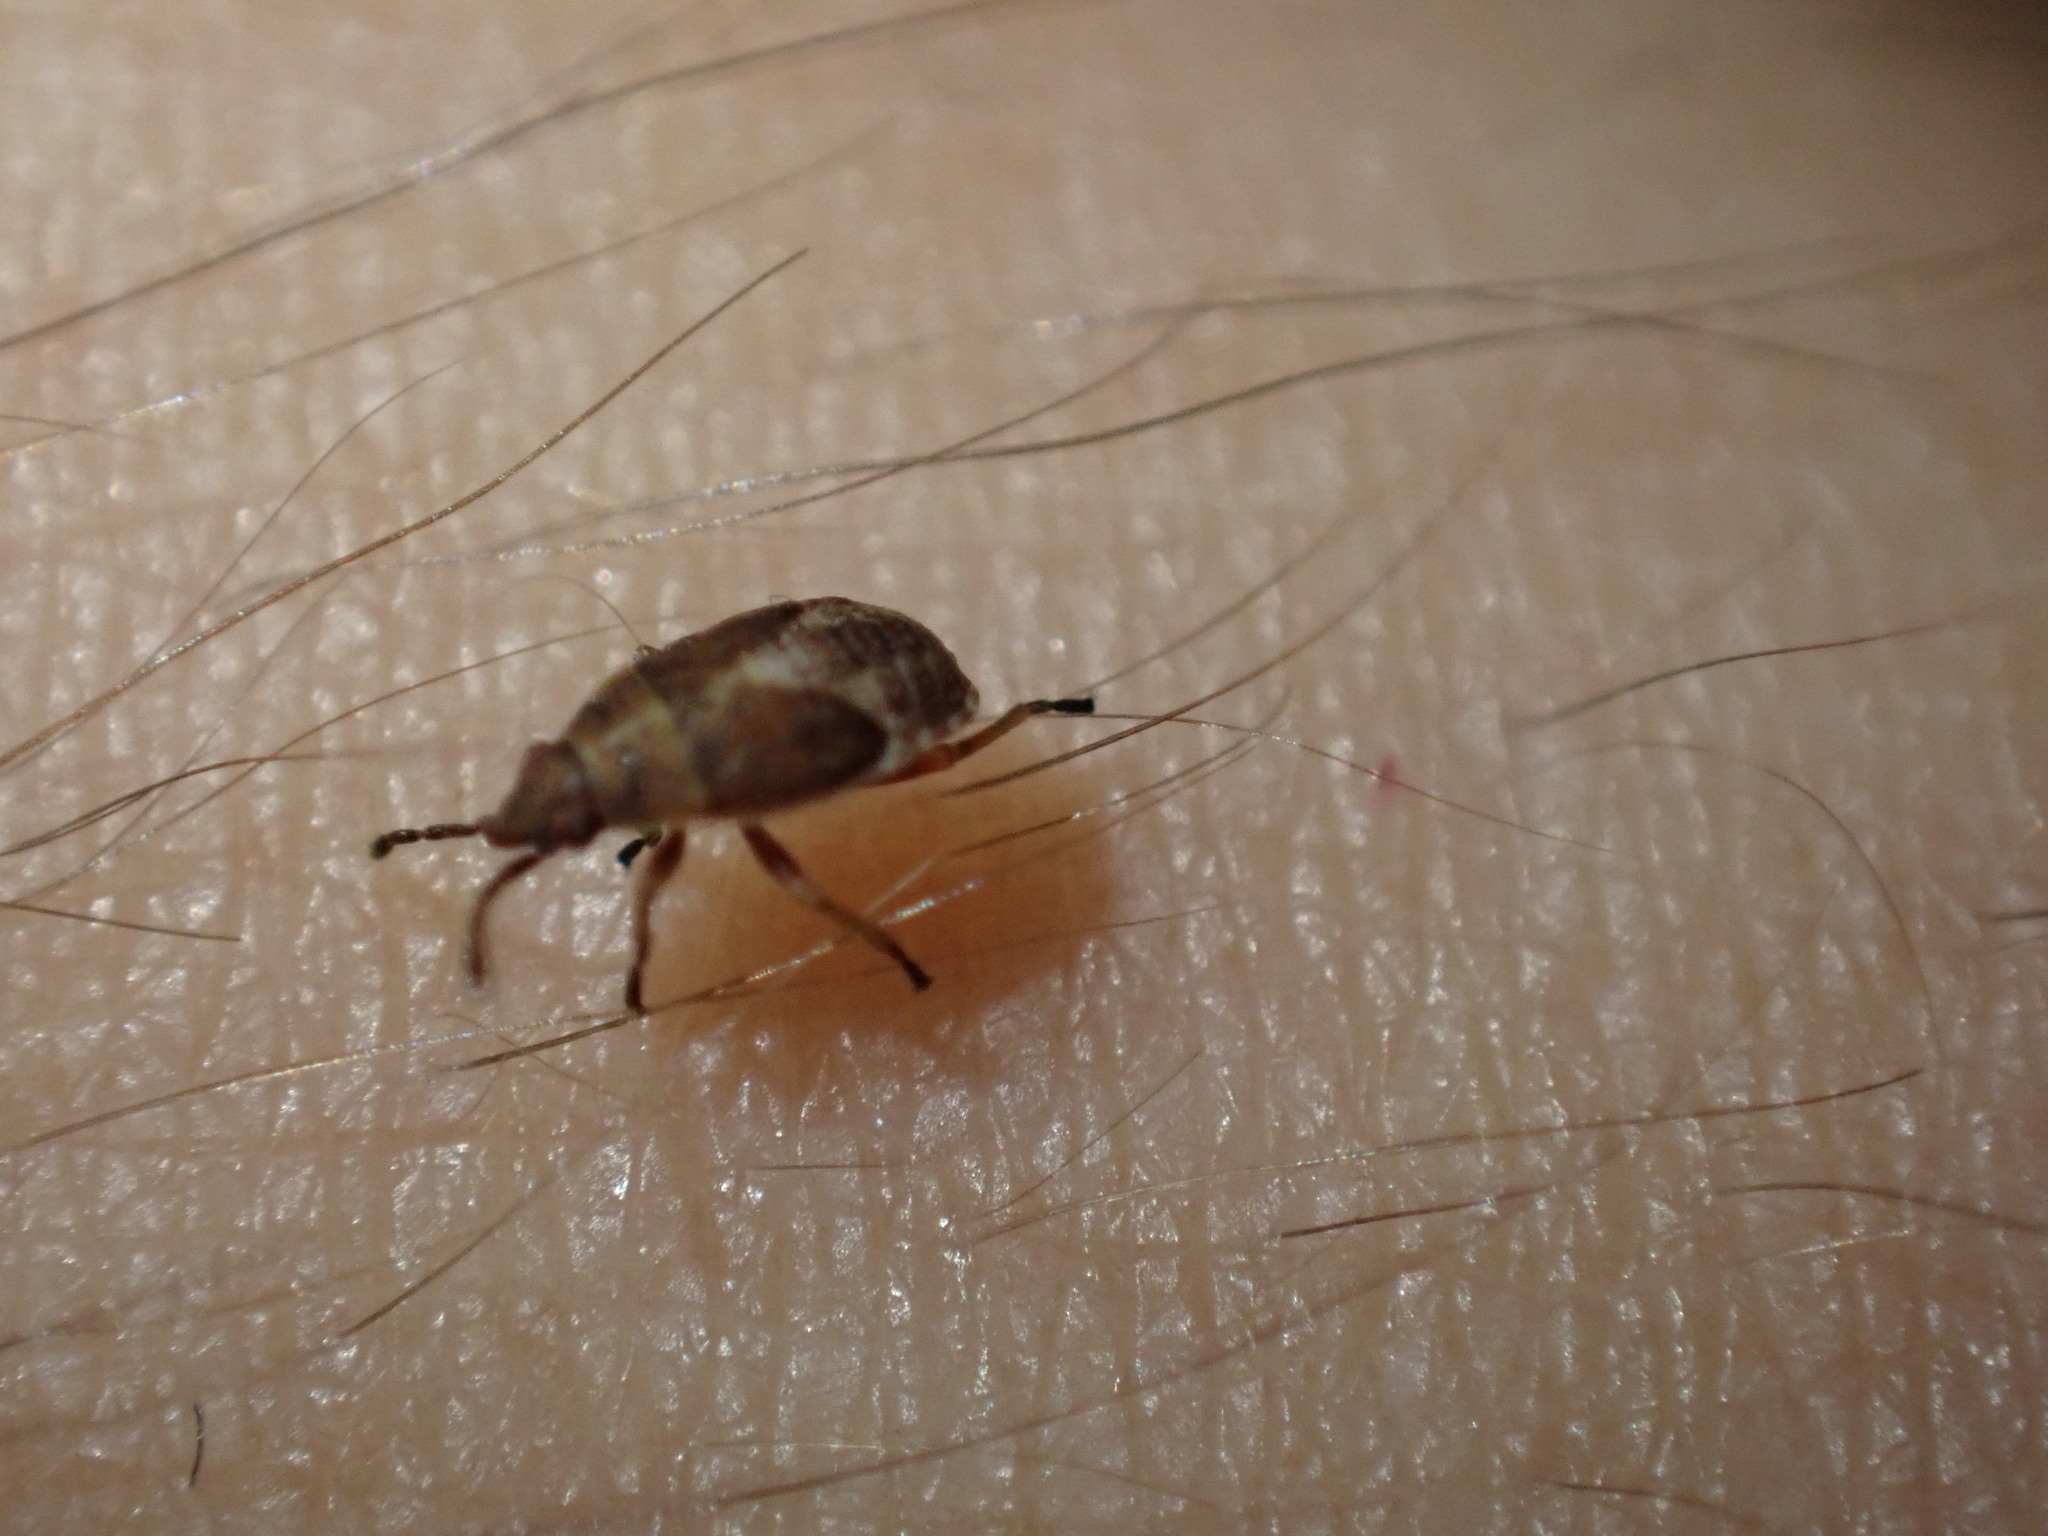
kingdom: Animalia
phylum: Arthropoda
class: Insecta
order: Hemiptera
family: Lygaeidae
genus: Kleidocerys
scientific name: Kleidocerys resedae
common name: Birch catkin bug
